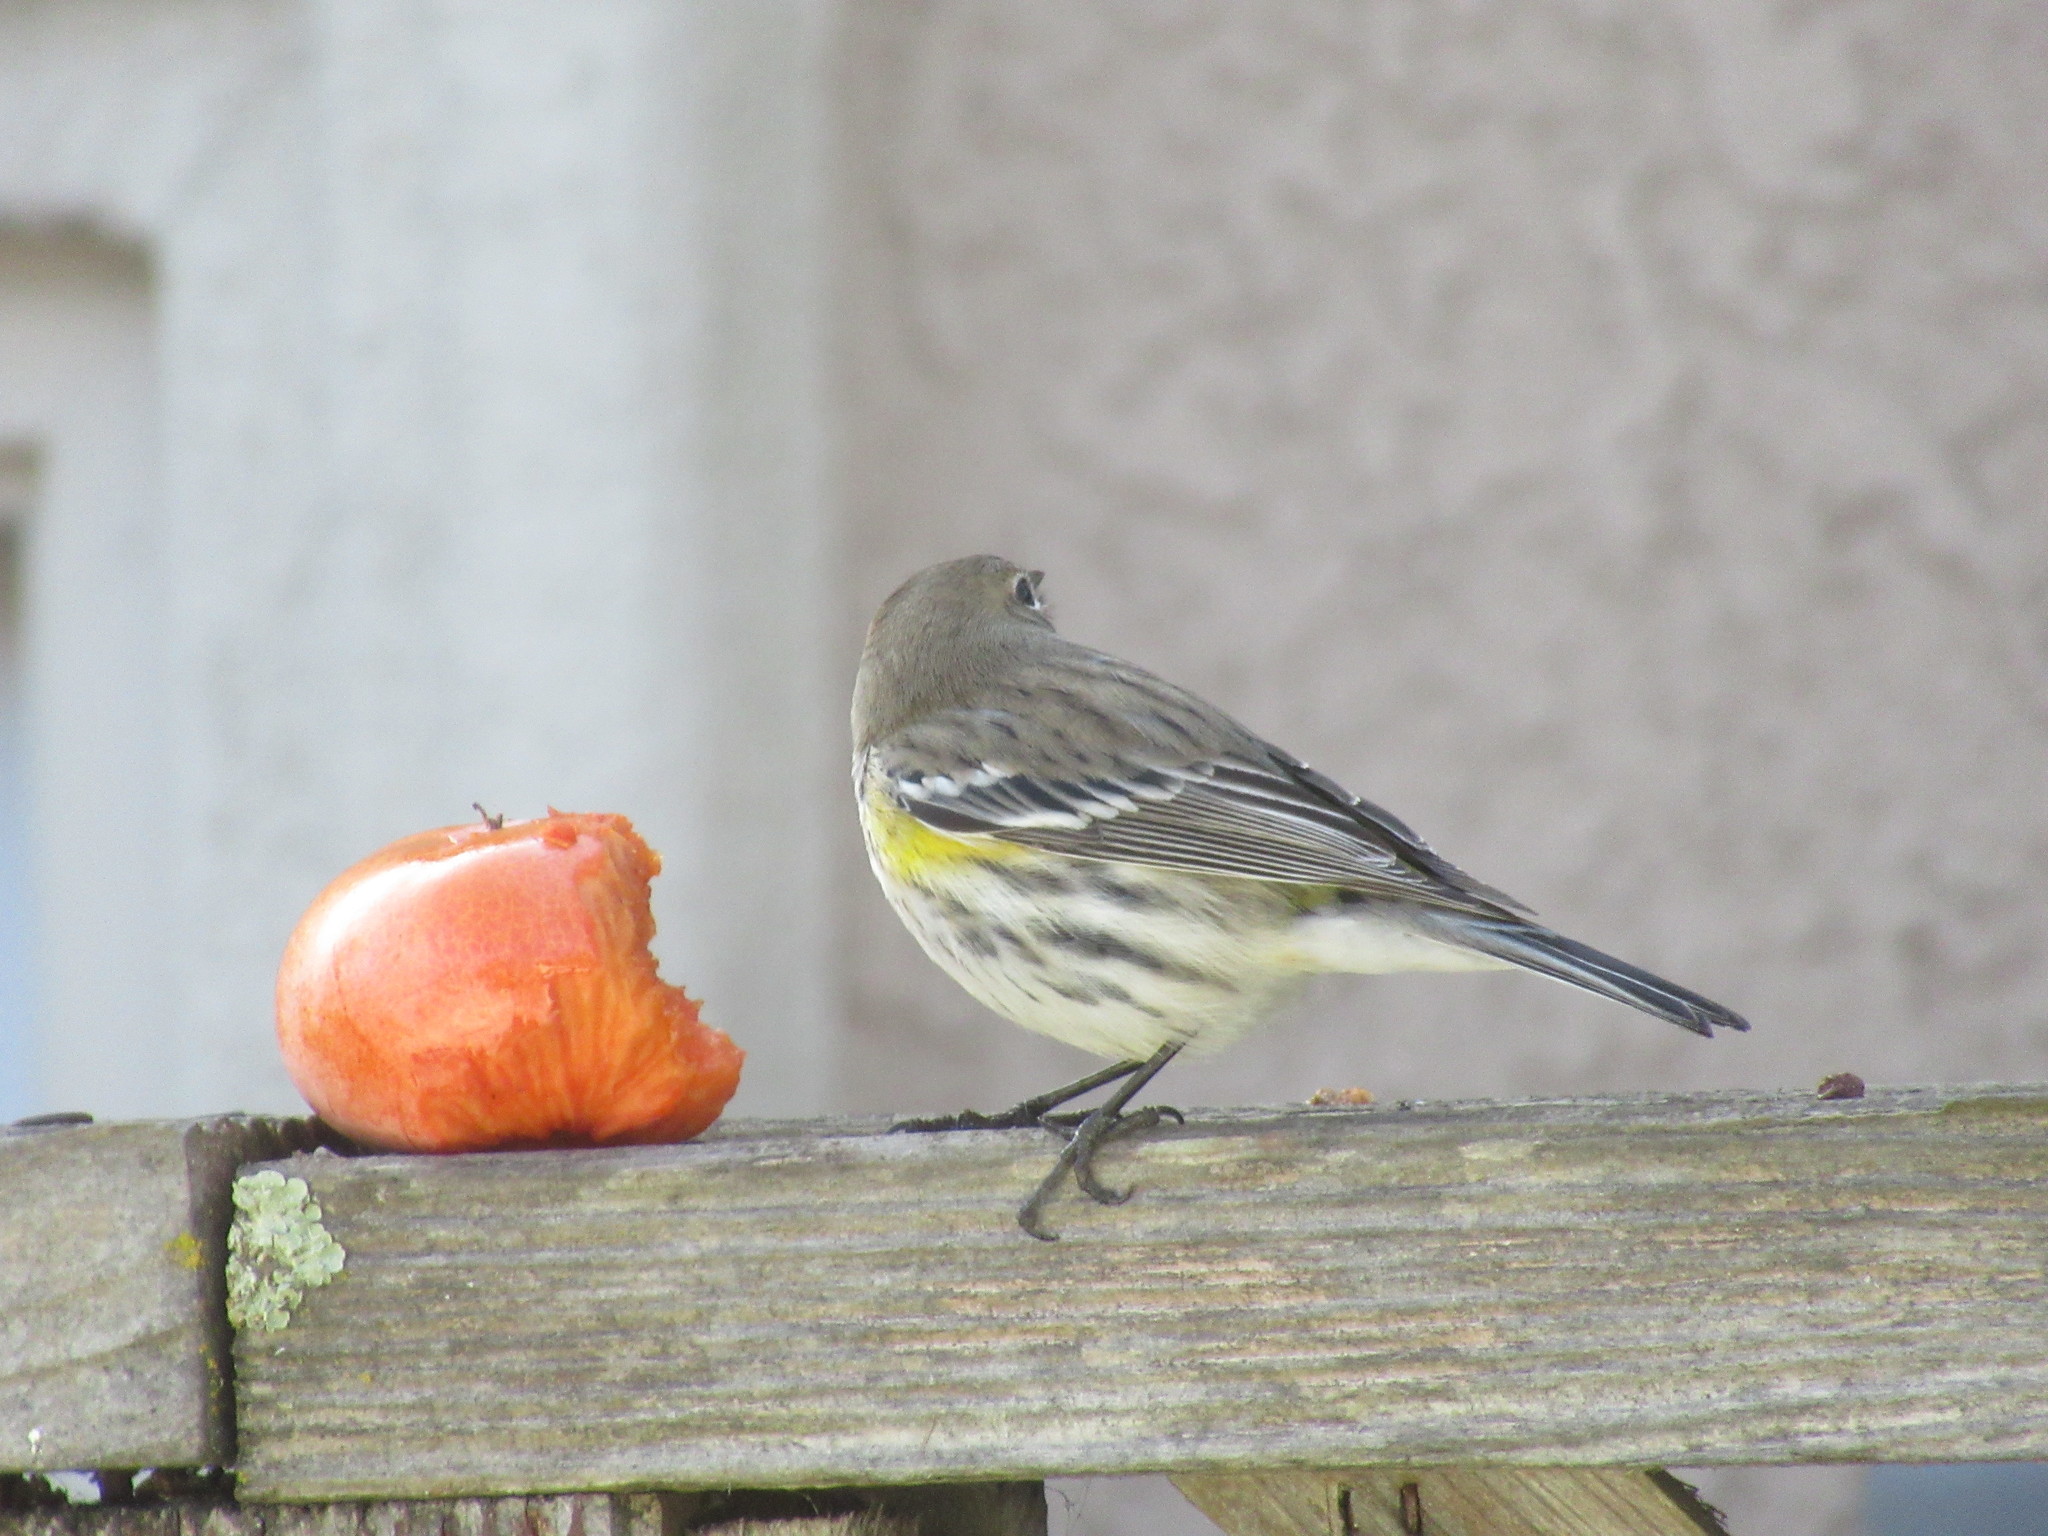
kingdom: Animalia
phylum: Chordata
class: Aves
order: Passeriformes
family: Parulidae
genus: Setophaga
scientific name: Setophaga coronata
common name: Myrtle warbler
